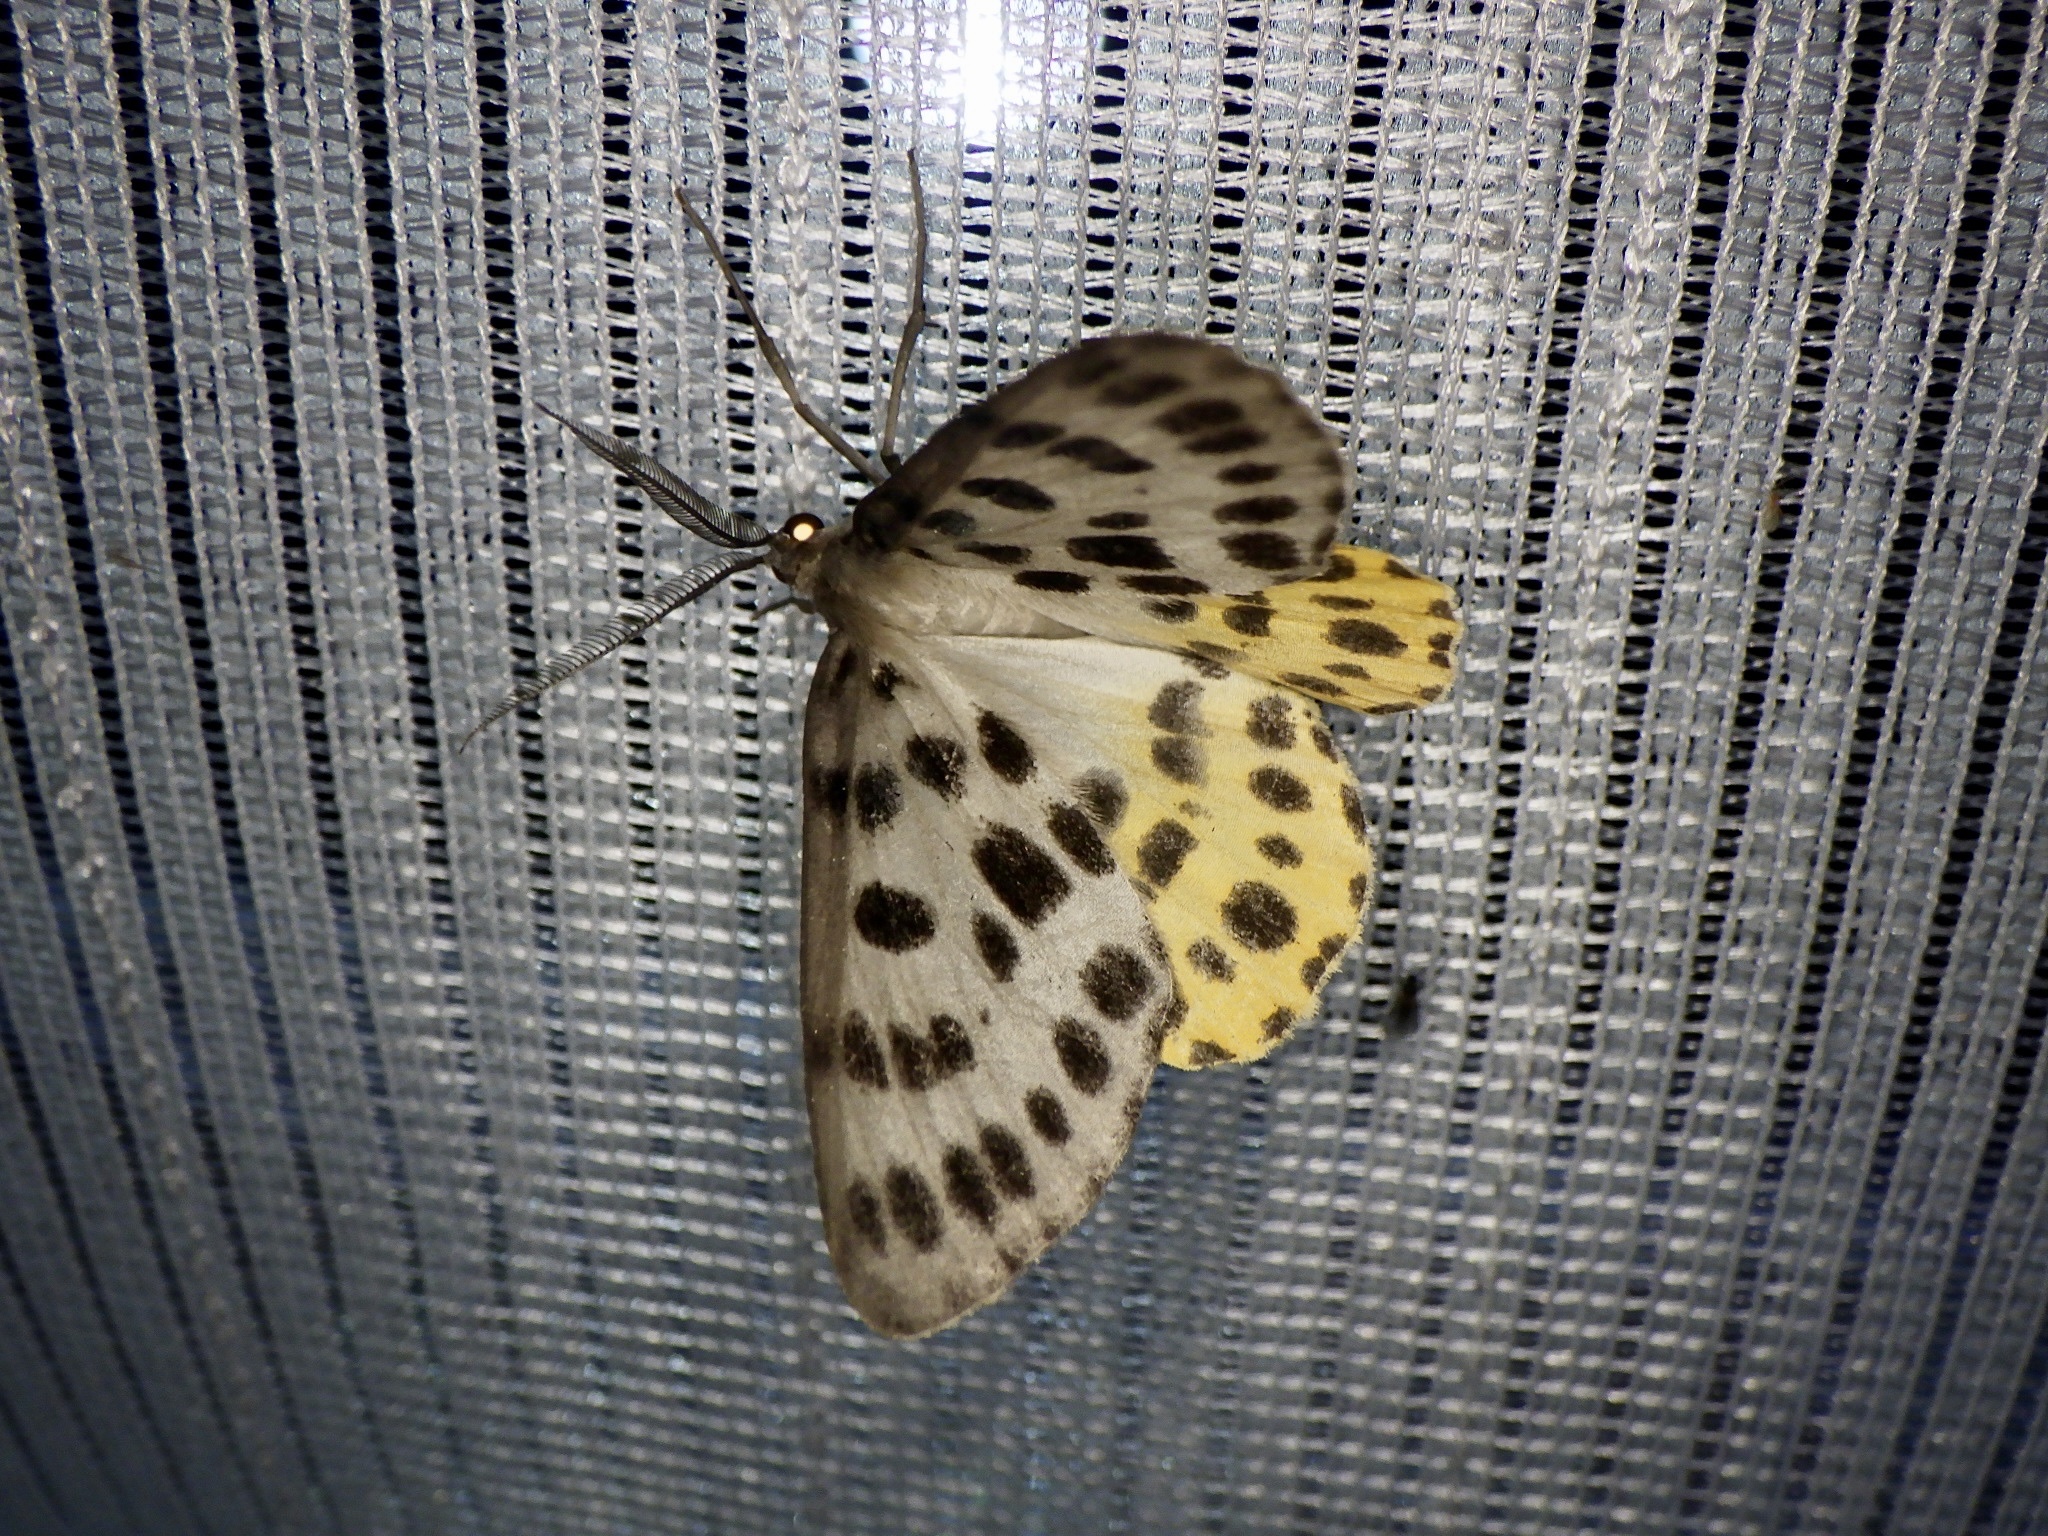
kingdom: Animalia
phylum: Arthropoda
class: Insecta
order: Lepidoptera
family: Geometridae
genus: Arichanna
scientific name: Arichanna
